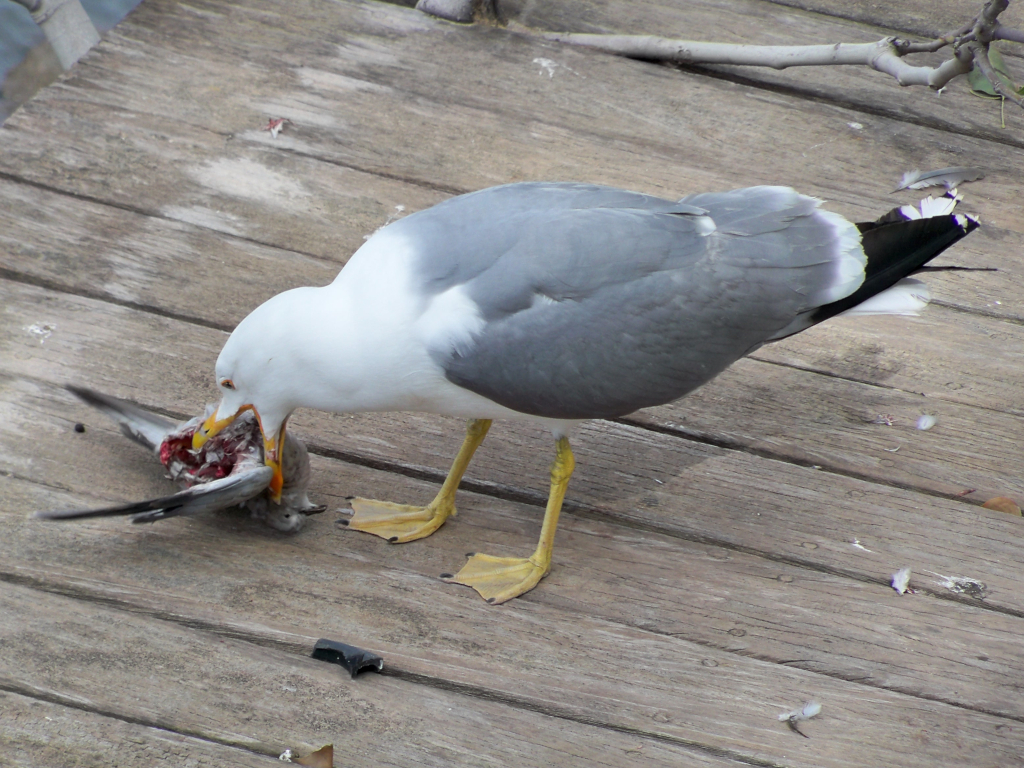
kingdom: Animalia
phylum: Chordata
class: Aves
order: Columbiformes
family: Columbidae
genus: Streptopelia
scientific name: Streptopelia decaocto
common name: Eurasian collared dove
